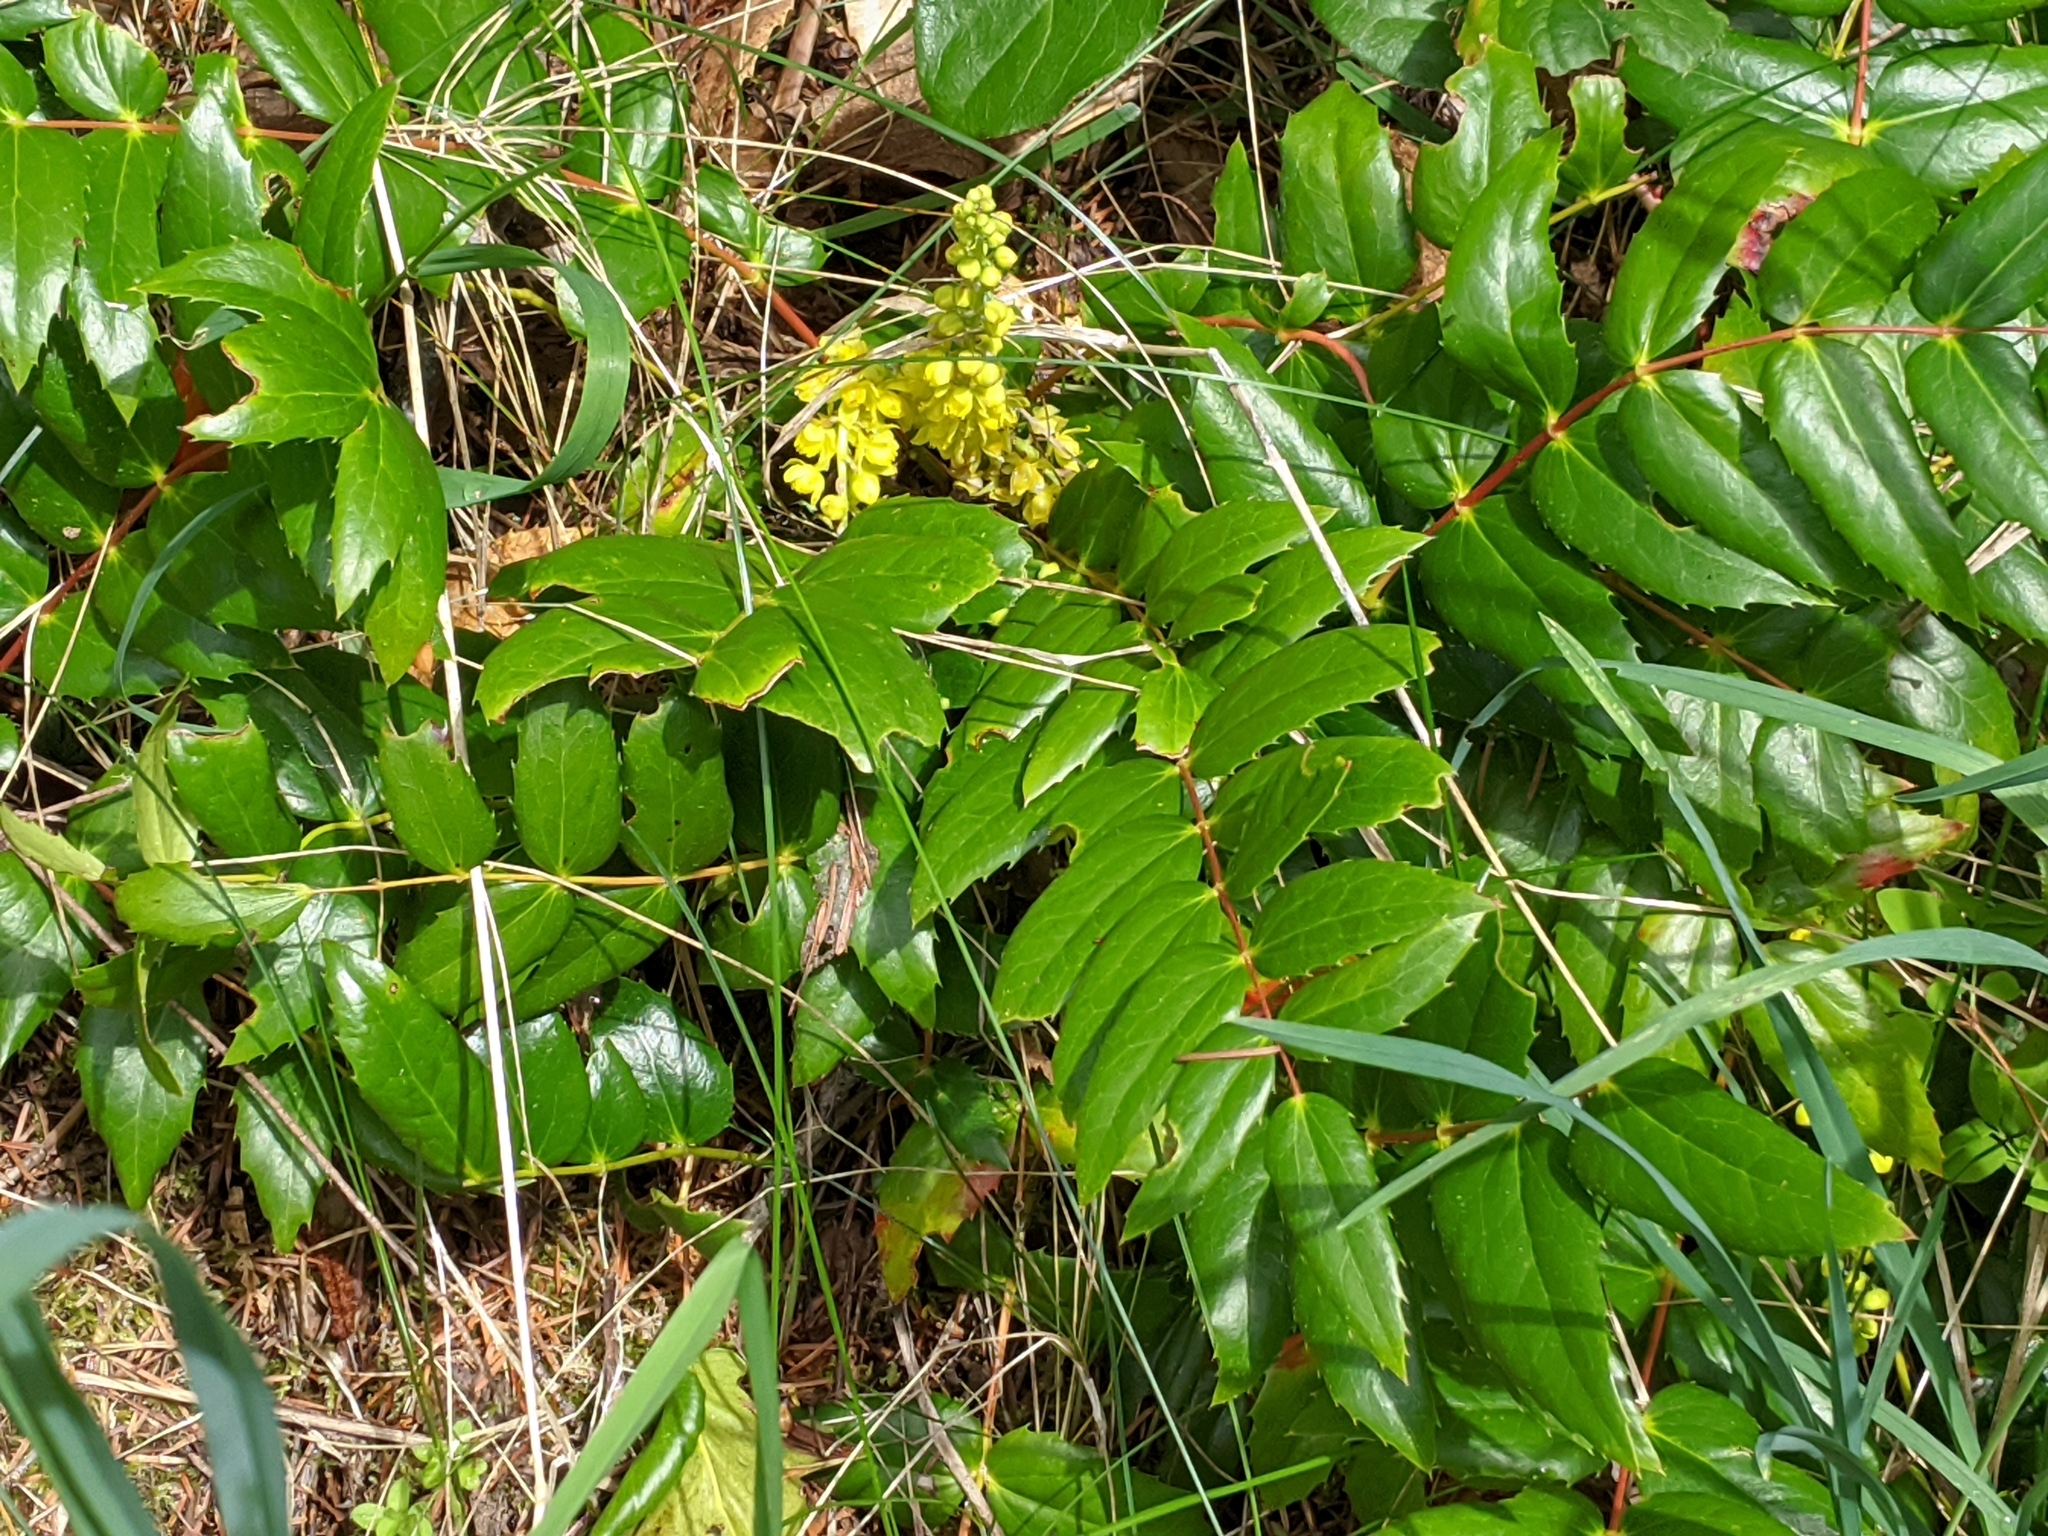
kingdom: Plantae
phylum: Tracheophyta
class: Magnoliopsida
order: Ranunculales
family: Berberidaceae
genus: Mahonia
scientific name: Mahonia nervosa
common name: Cascade oregon-grape
